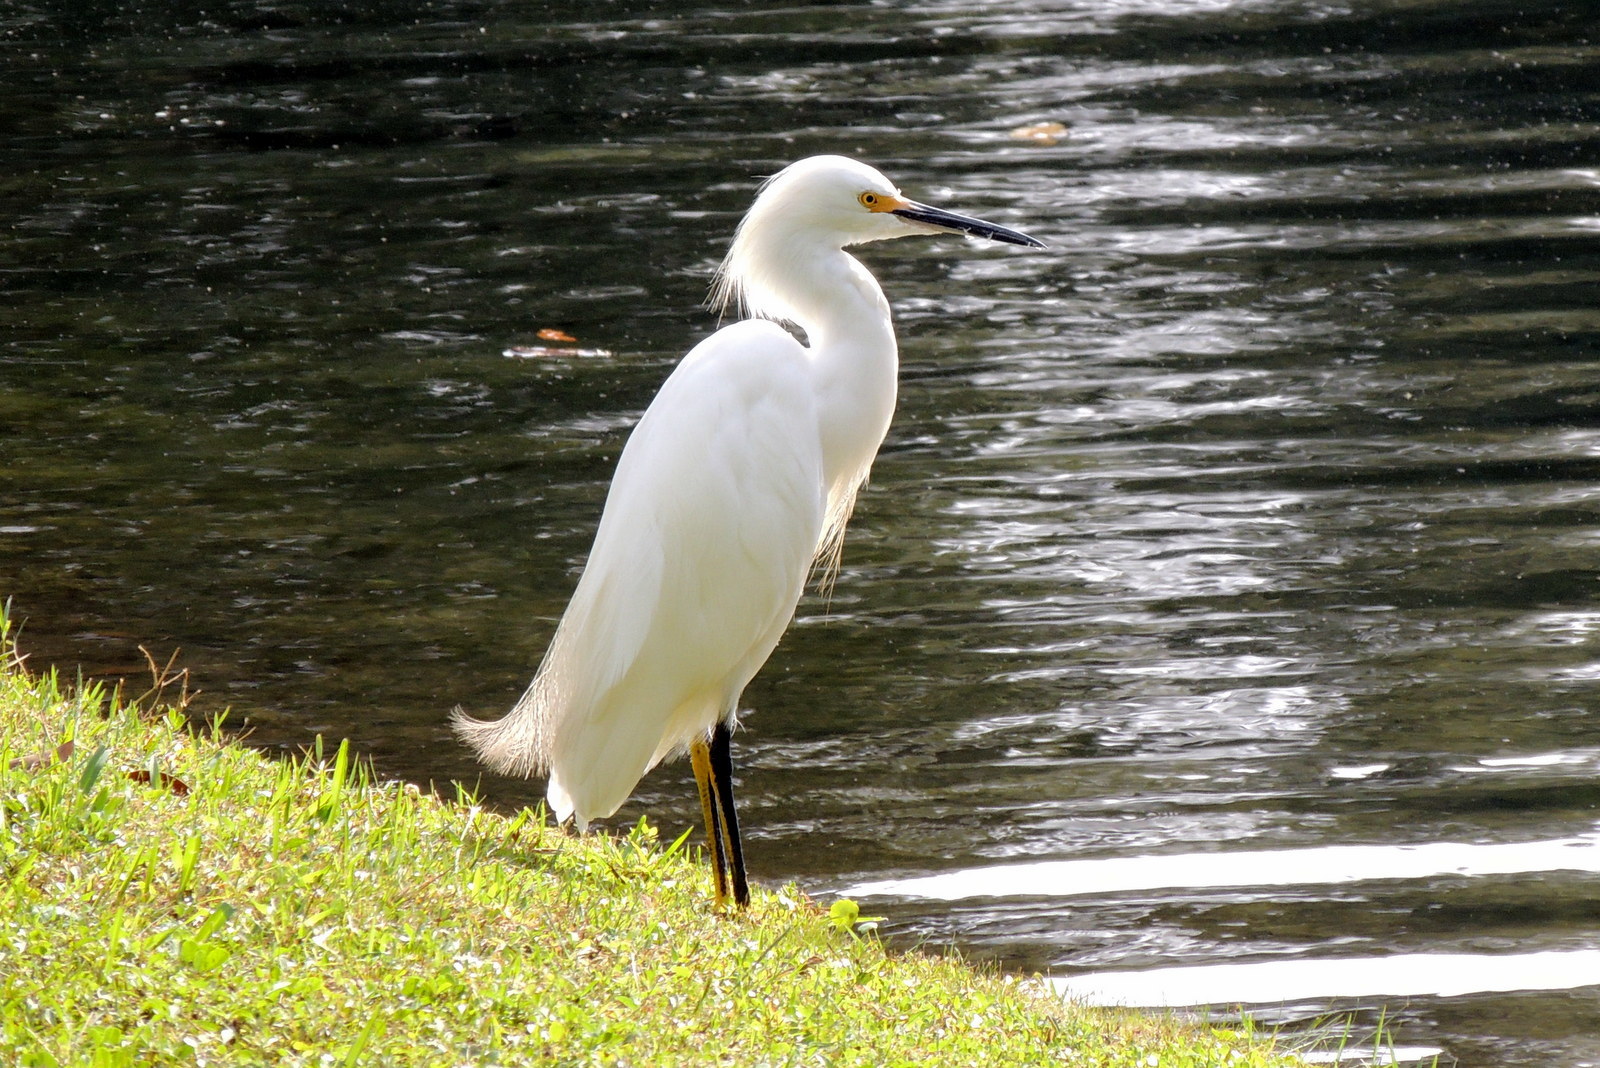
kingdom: Animalia
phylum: Chordata
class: Aves
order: Pelecaniformes
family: Ardeidae
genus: Egretta
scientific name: Egretta thula
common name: Snowy egret
